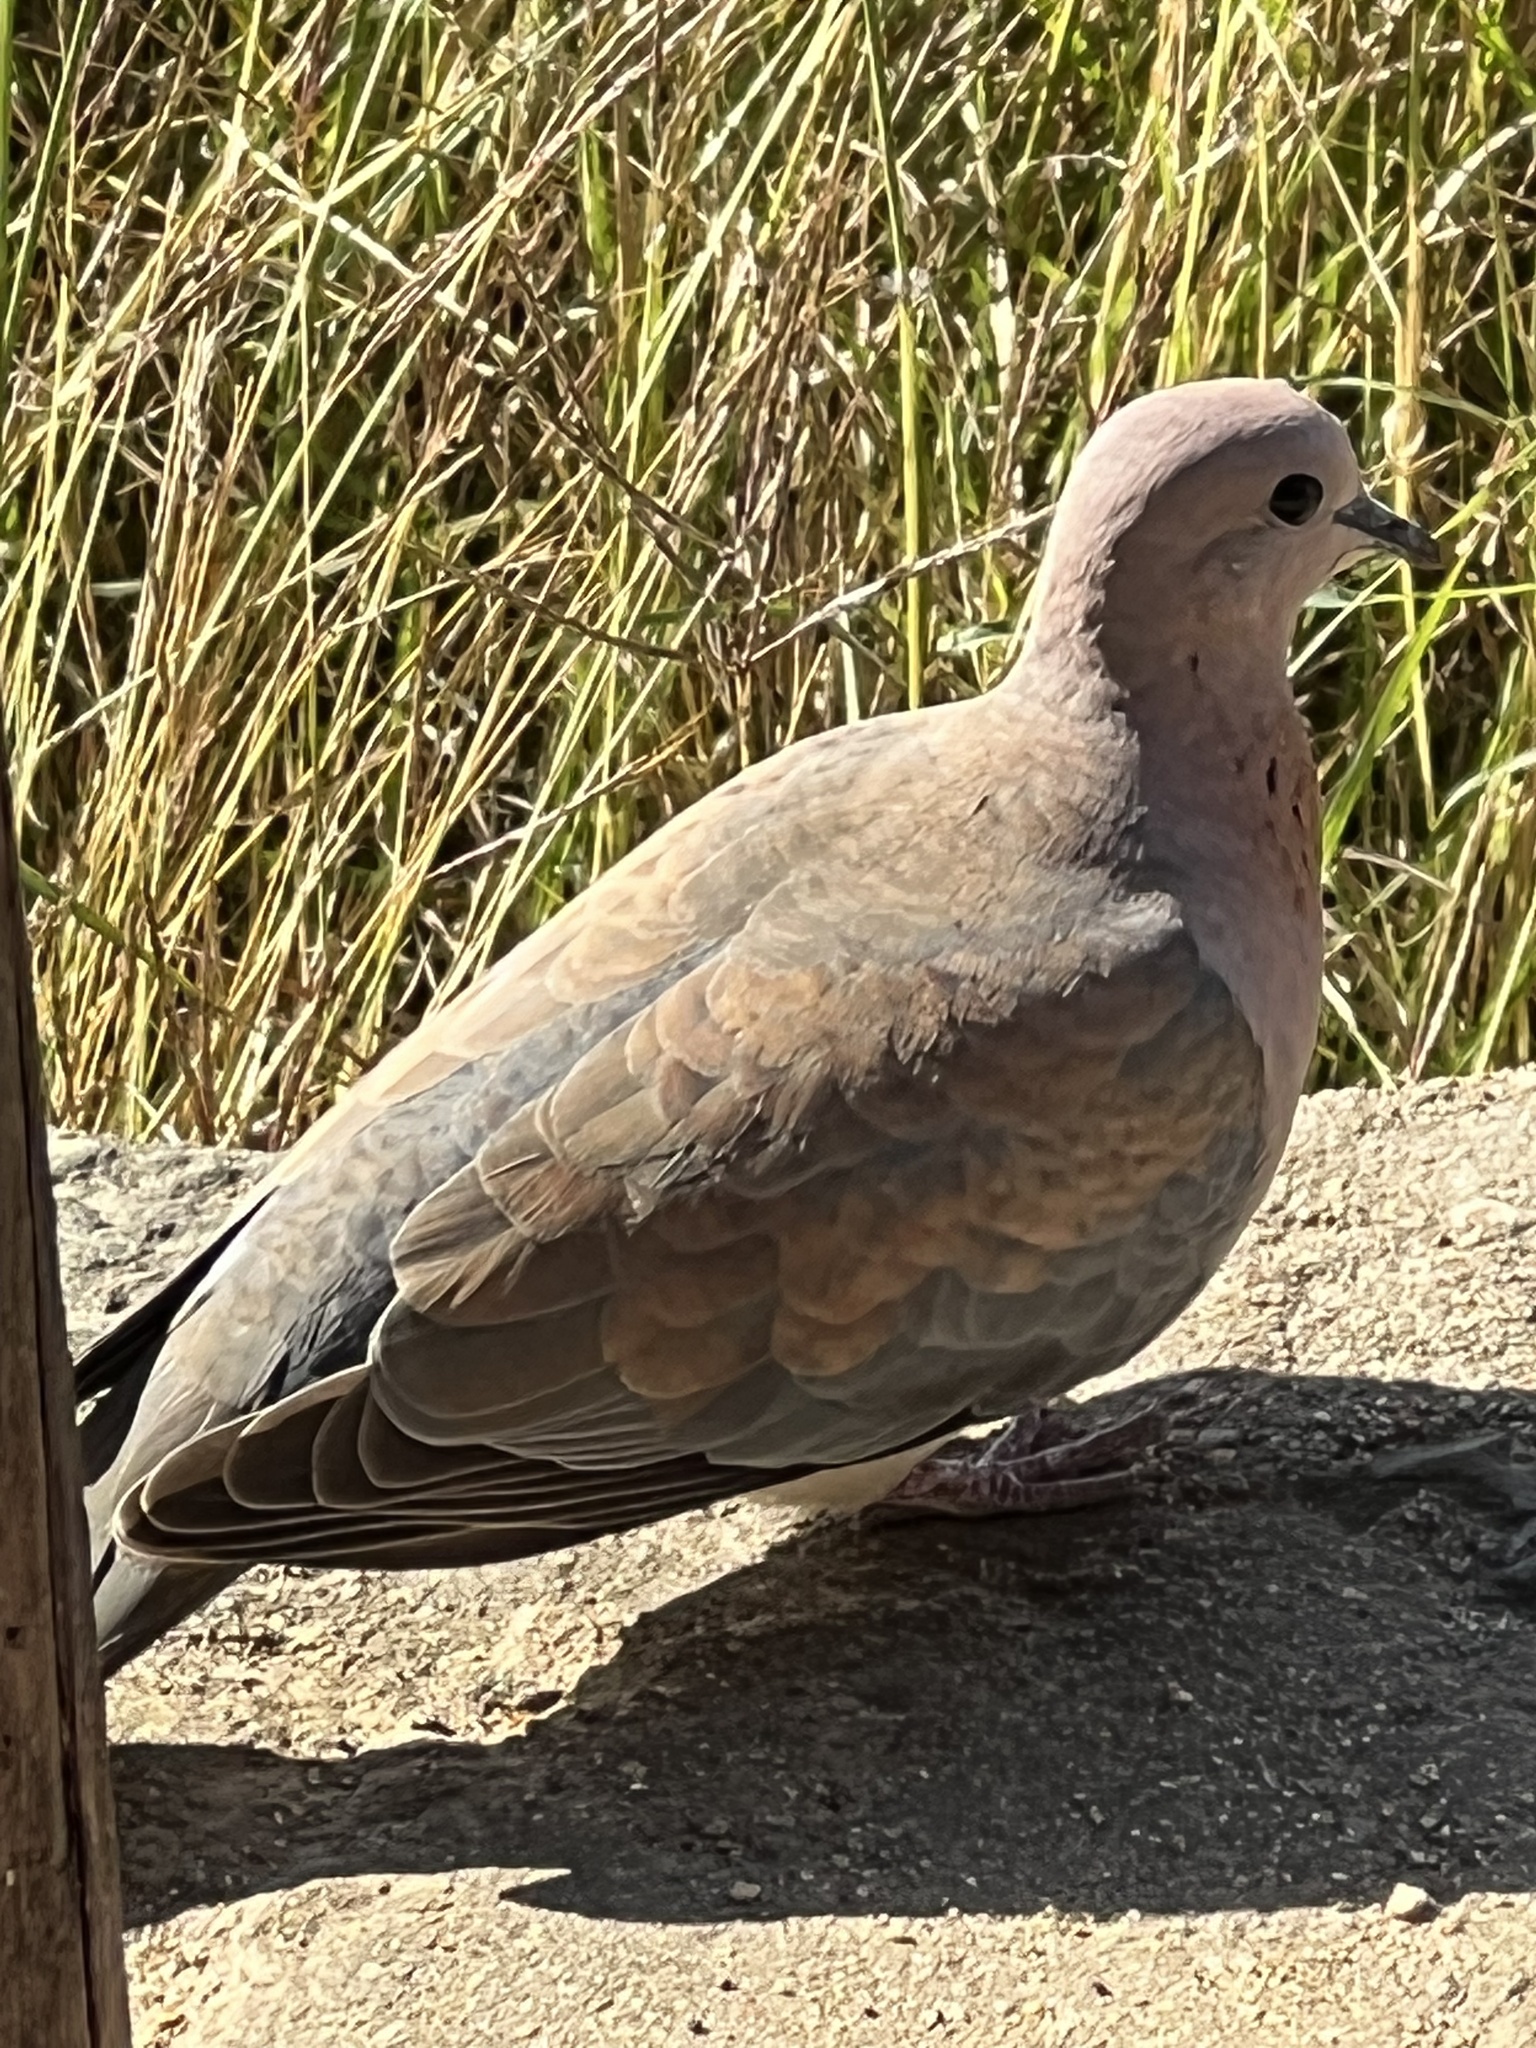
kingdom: Animalia
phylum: Chordata
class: Aves
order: Columbiformes
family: Columbidae
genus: Spilopelia
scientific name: Spilopelia senegalensis
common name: Laughing dove
